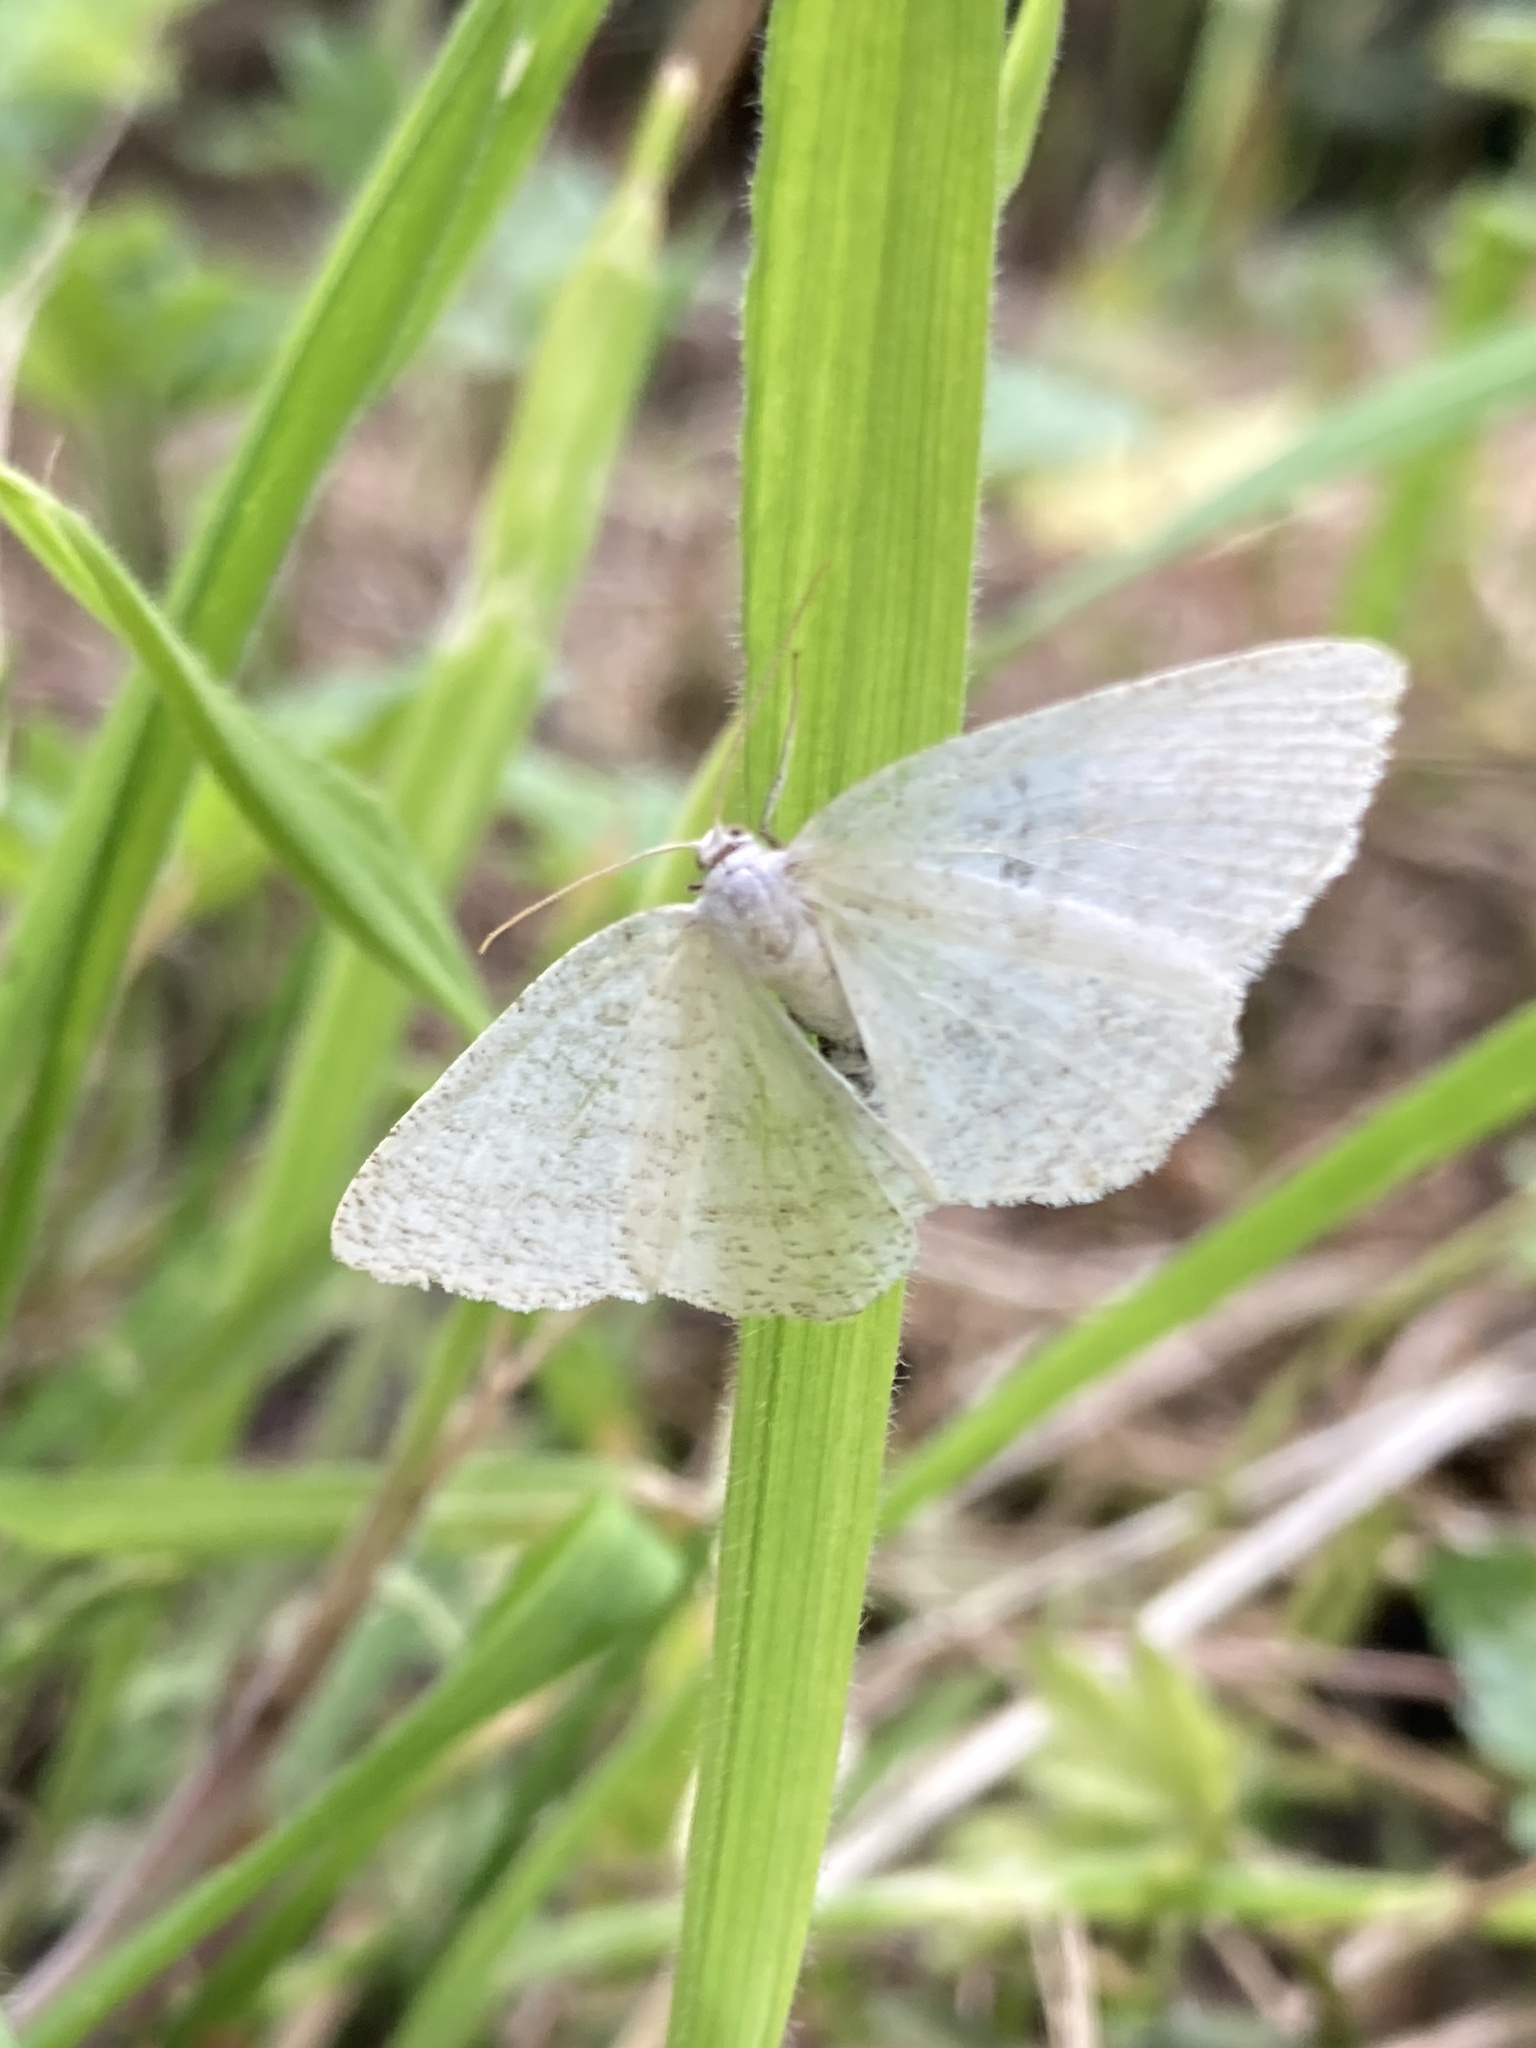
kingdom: Animalia
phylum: Arthropoda
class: Insecta
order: Lepidoptera
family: Geometridae
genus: Cabera
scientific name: Cabera pusaria
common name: Common white wave
